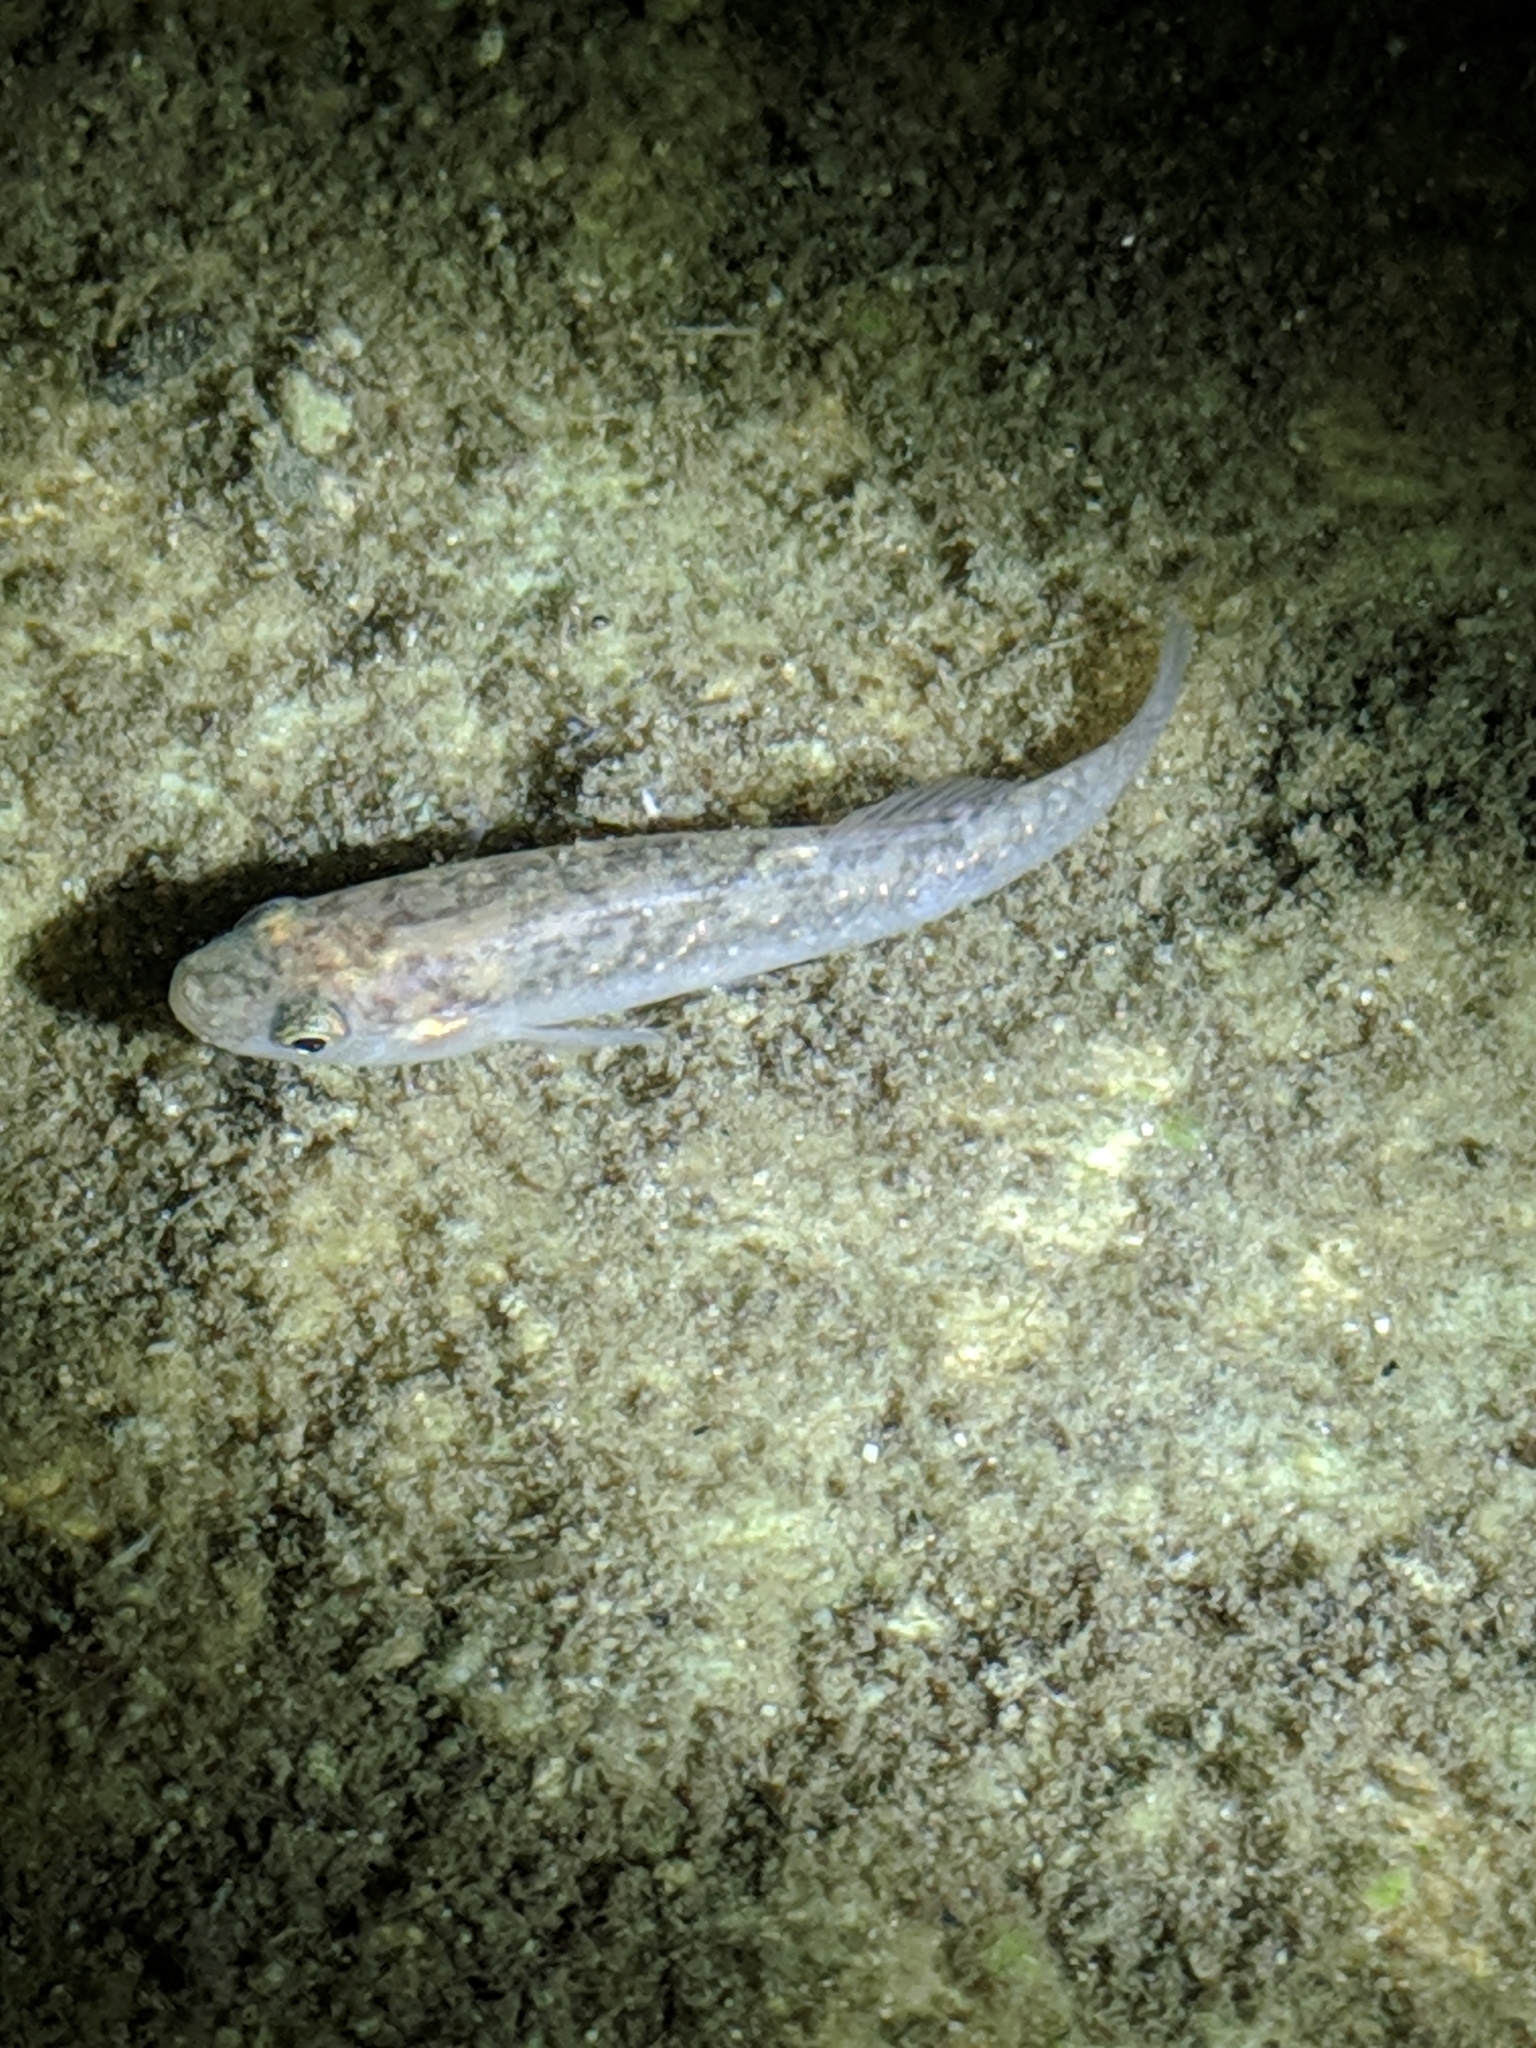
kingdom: Animalia
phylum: Chordata
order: Cyprinodontiformes
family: Fundulidae
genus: Fundulus
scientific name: Fundulus confluentus
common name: Killifish
